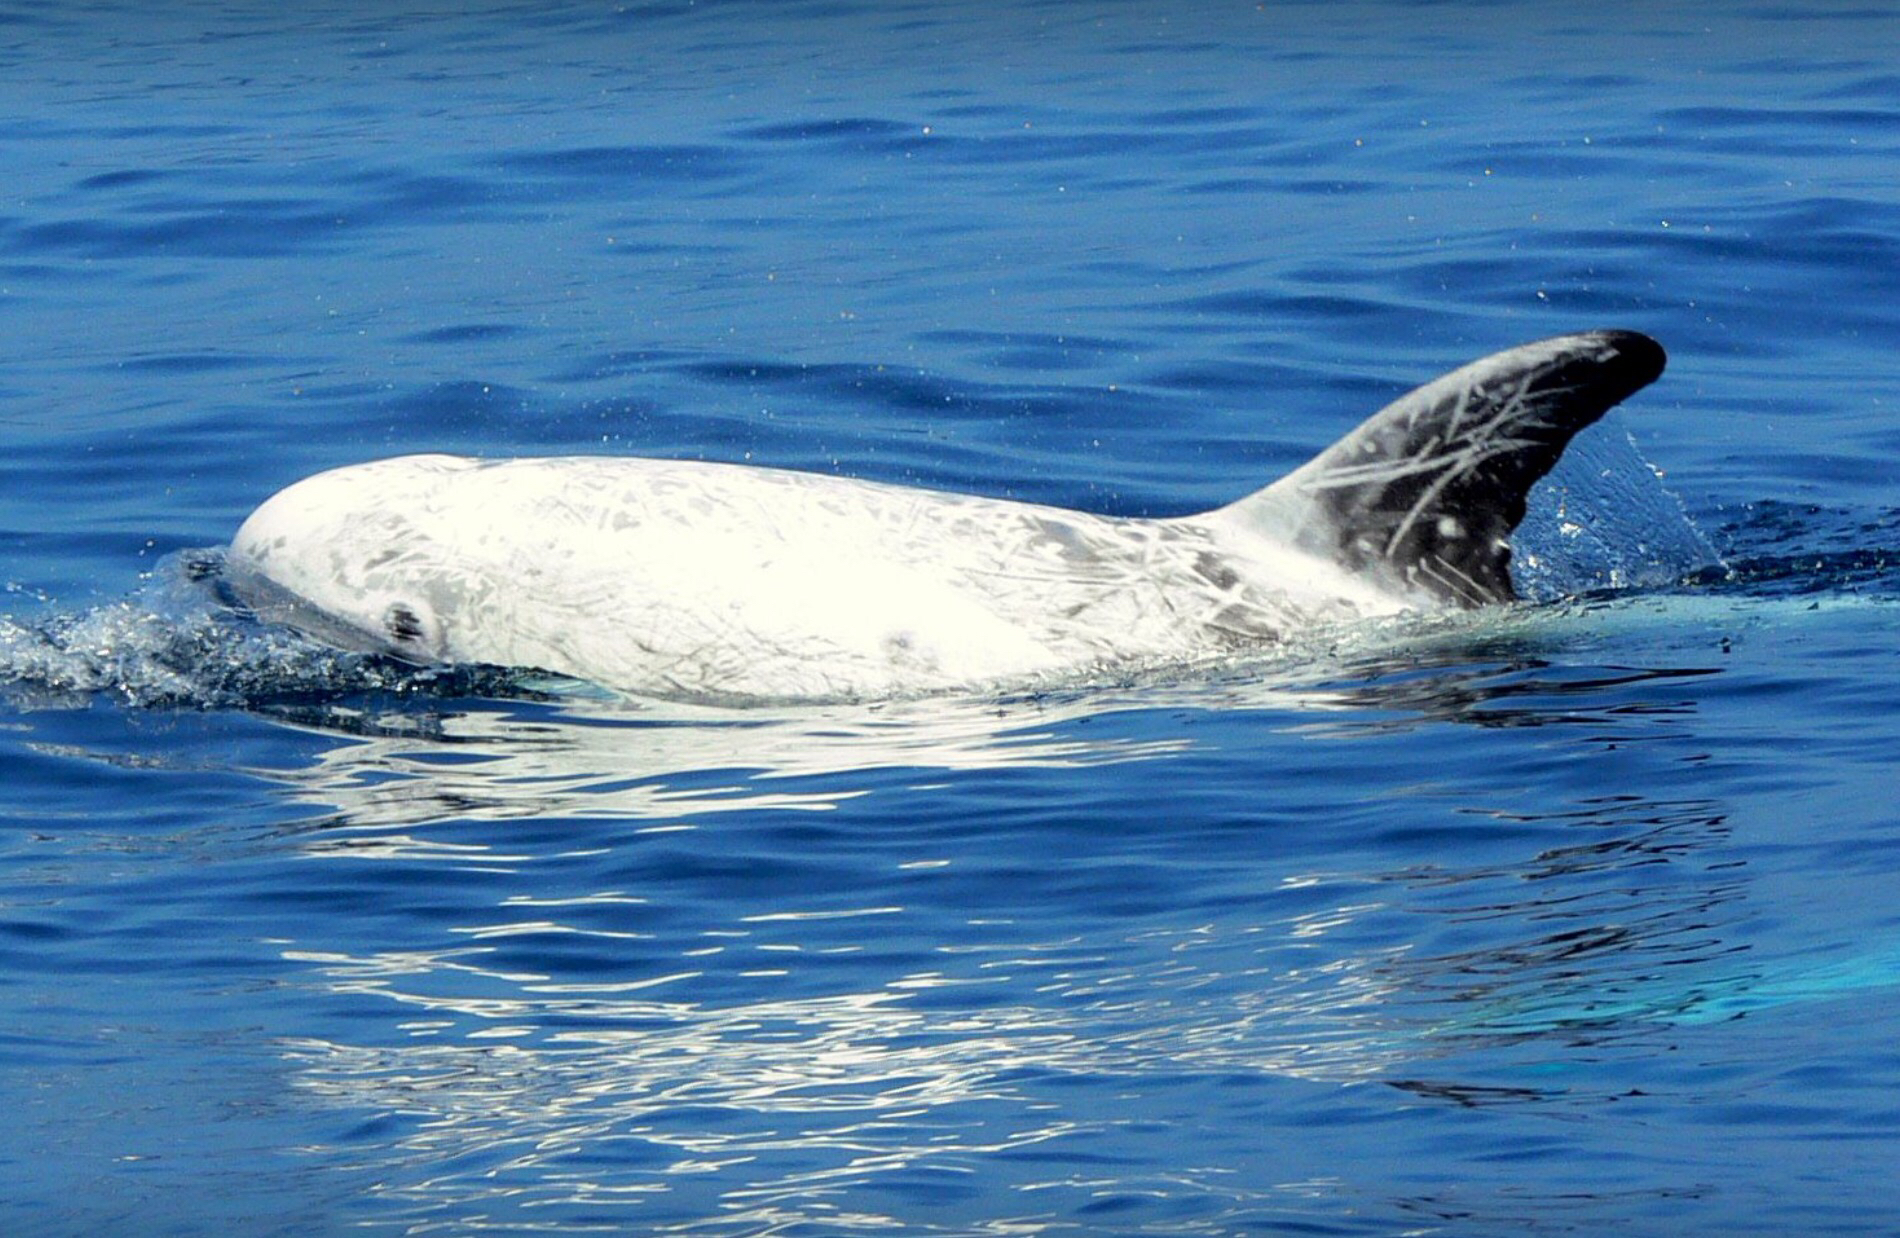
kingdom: Animalia
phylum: Chordata
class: Mammalia
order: Cetacea
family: Delphinidae
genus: Grampus
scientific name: Grampus griseus
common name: Risso's dolphin
